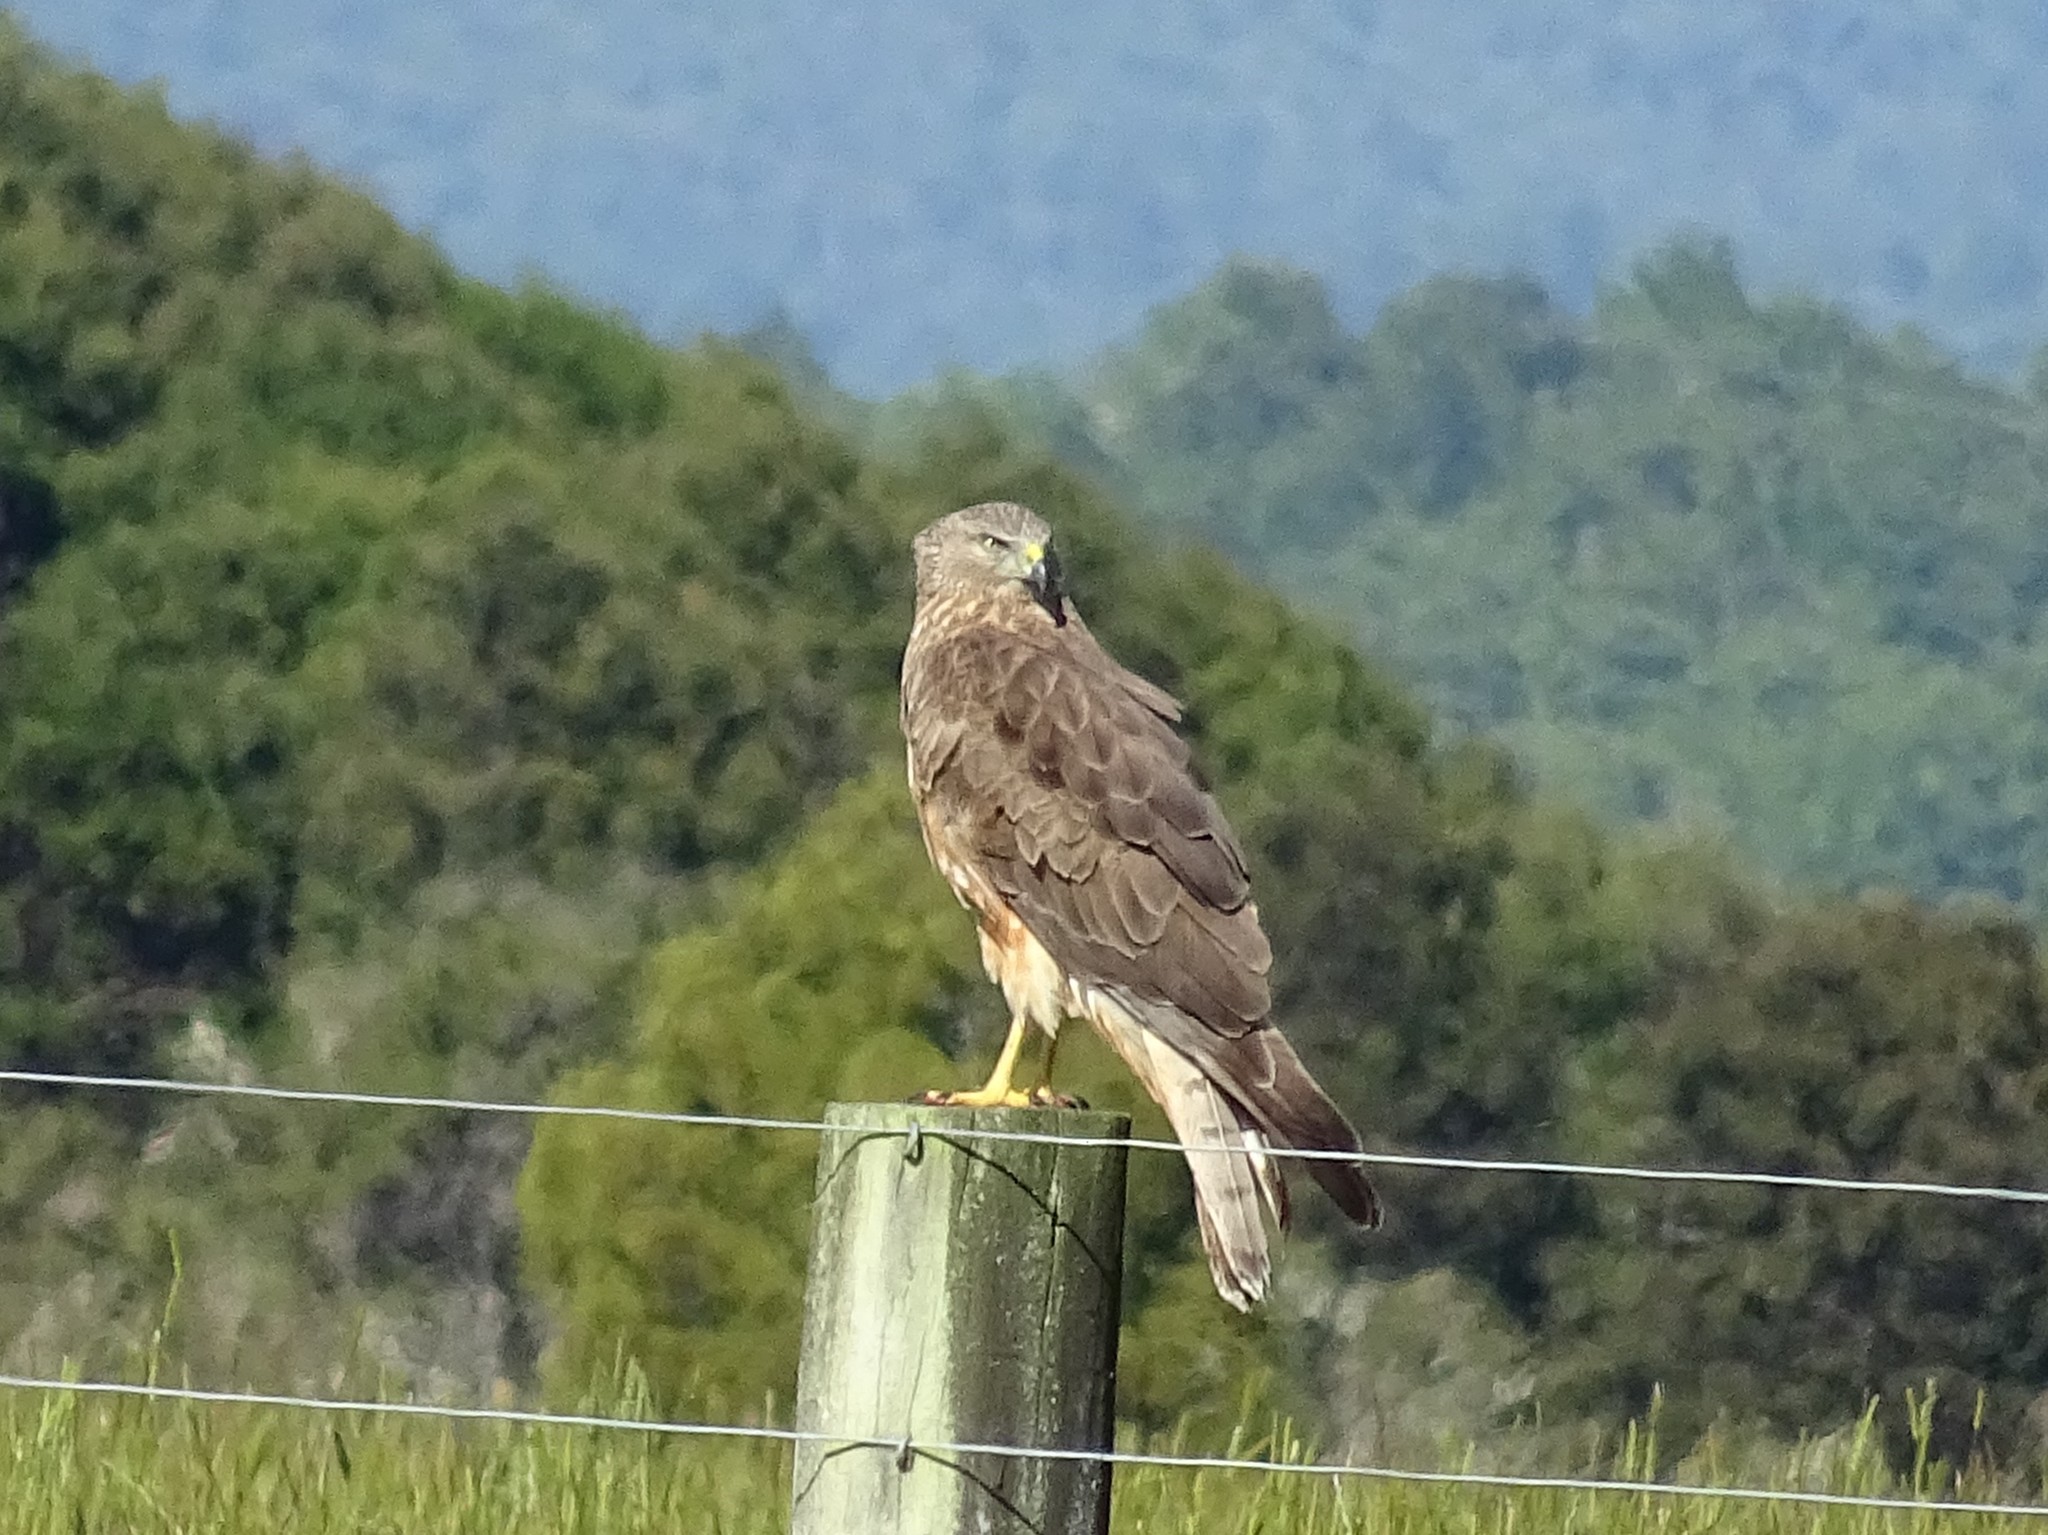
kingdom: Animalia
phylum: Chordata
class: Aves
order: Accipitriformes
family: Accipitridae
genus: Circus
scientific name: Circus approximans
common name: Swamp harrier
